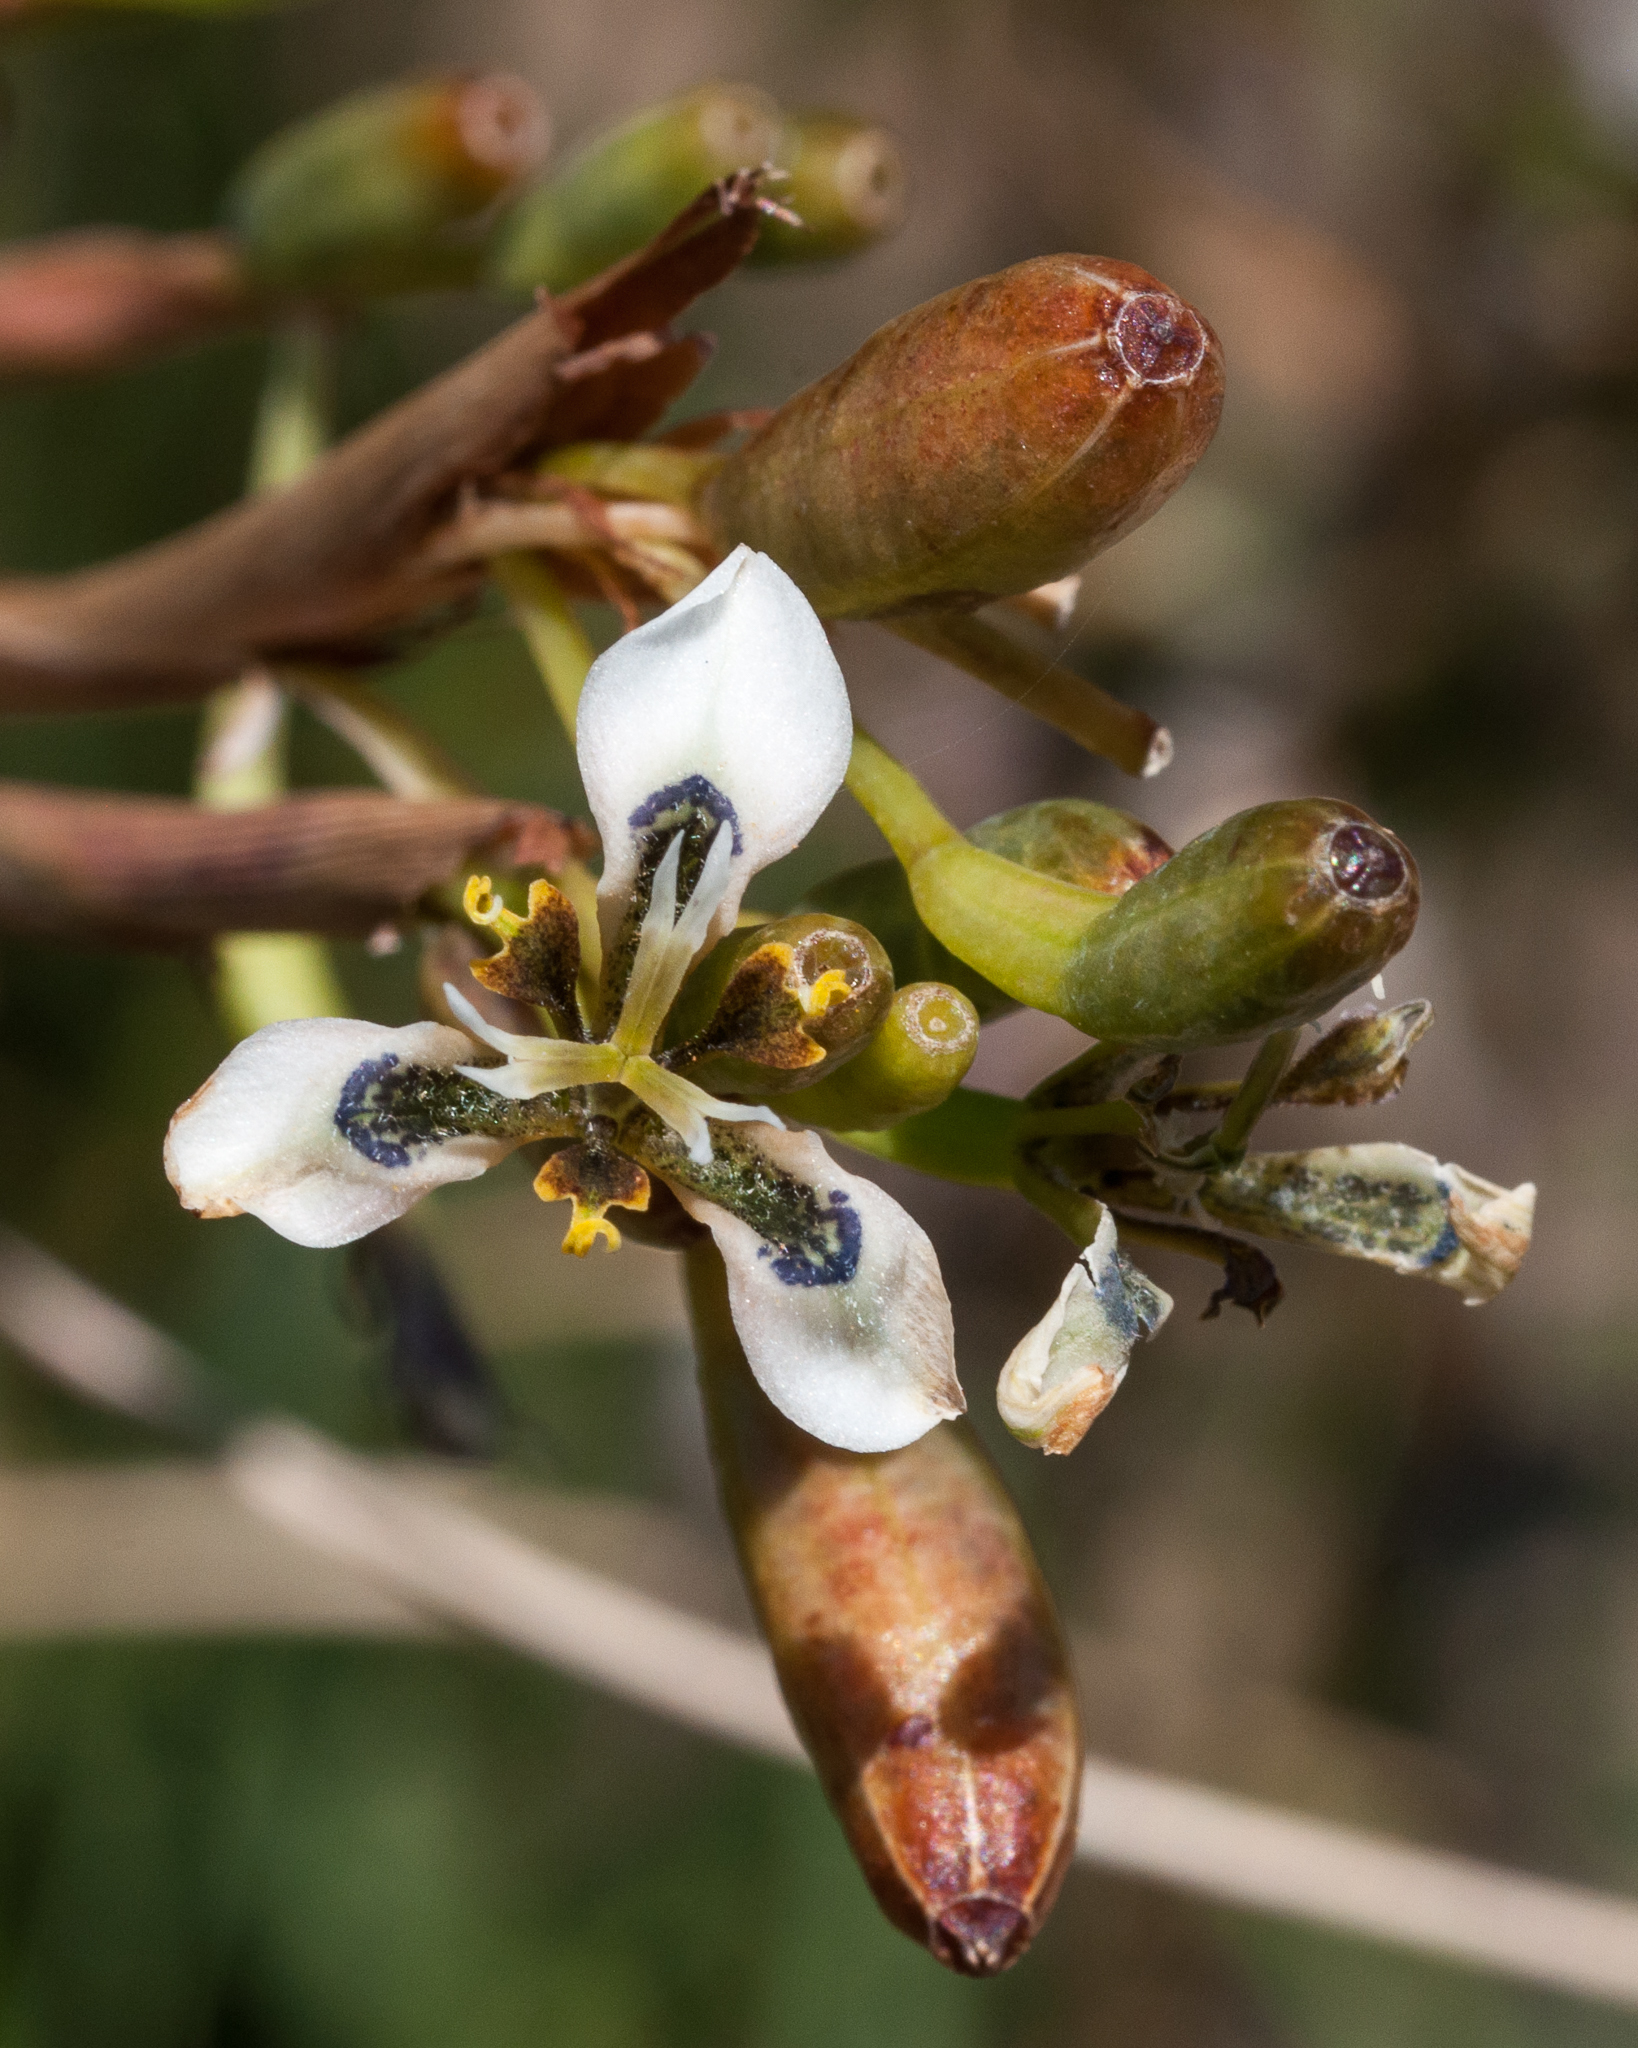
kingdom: Plantae
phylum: Tracheophyta
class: Liliopsida
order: Asparagales
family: Iridaceae
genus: Moraea
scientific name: Moraea tricuspidata
